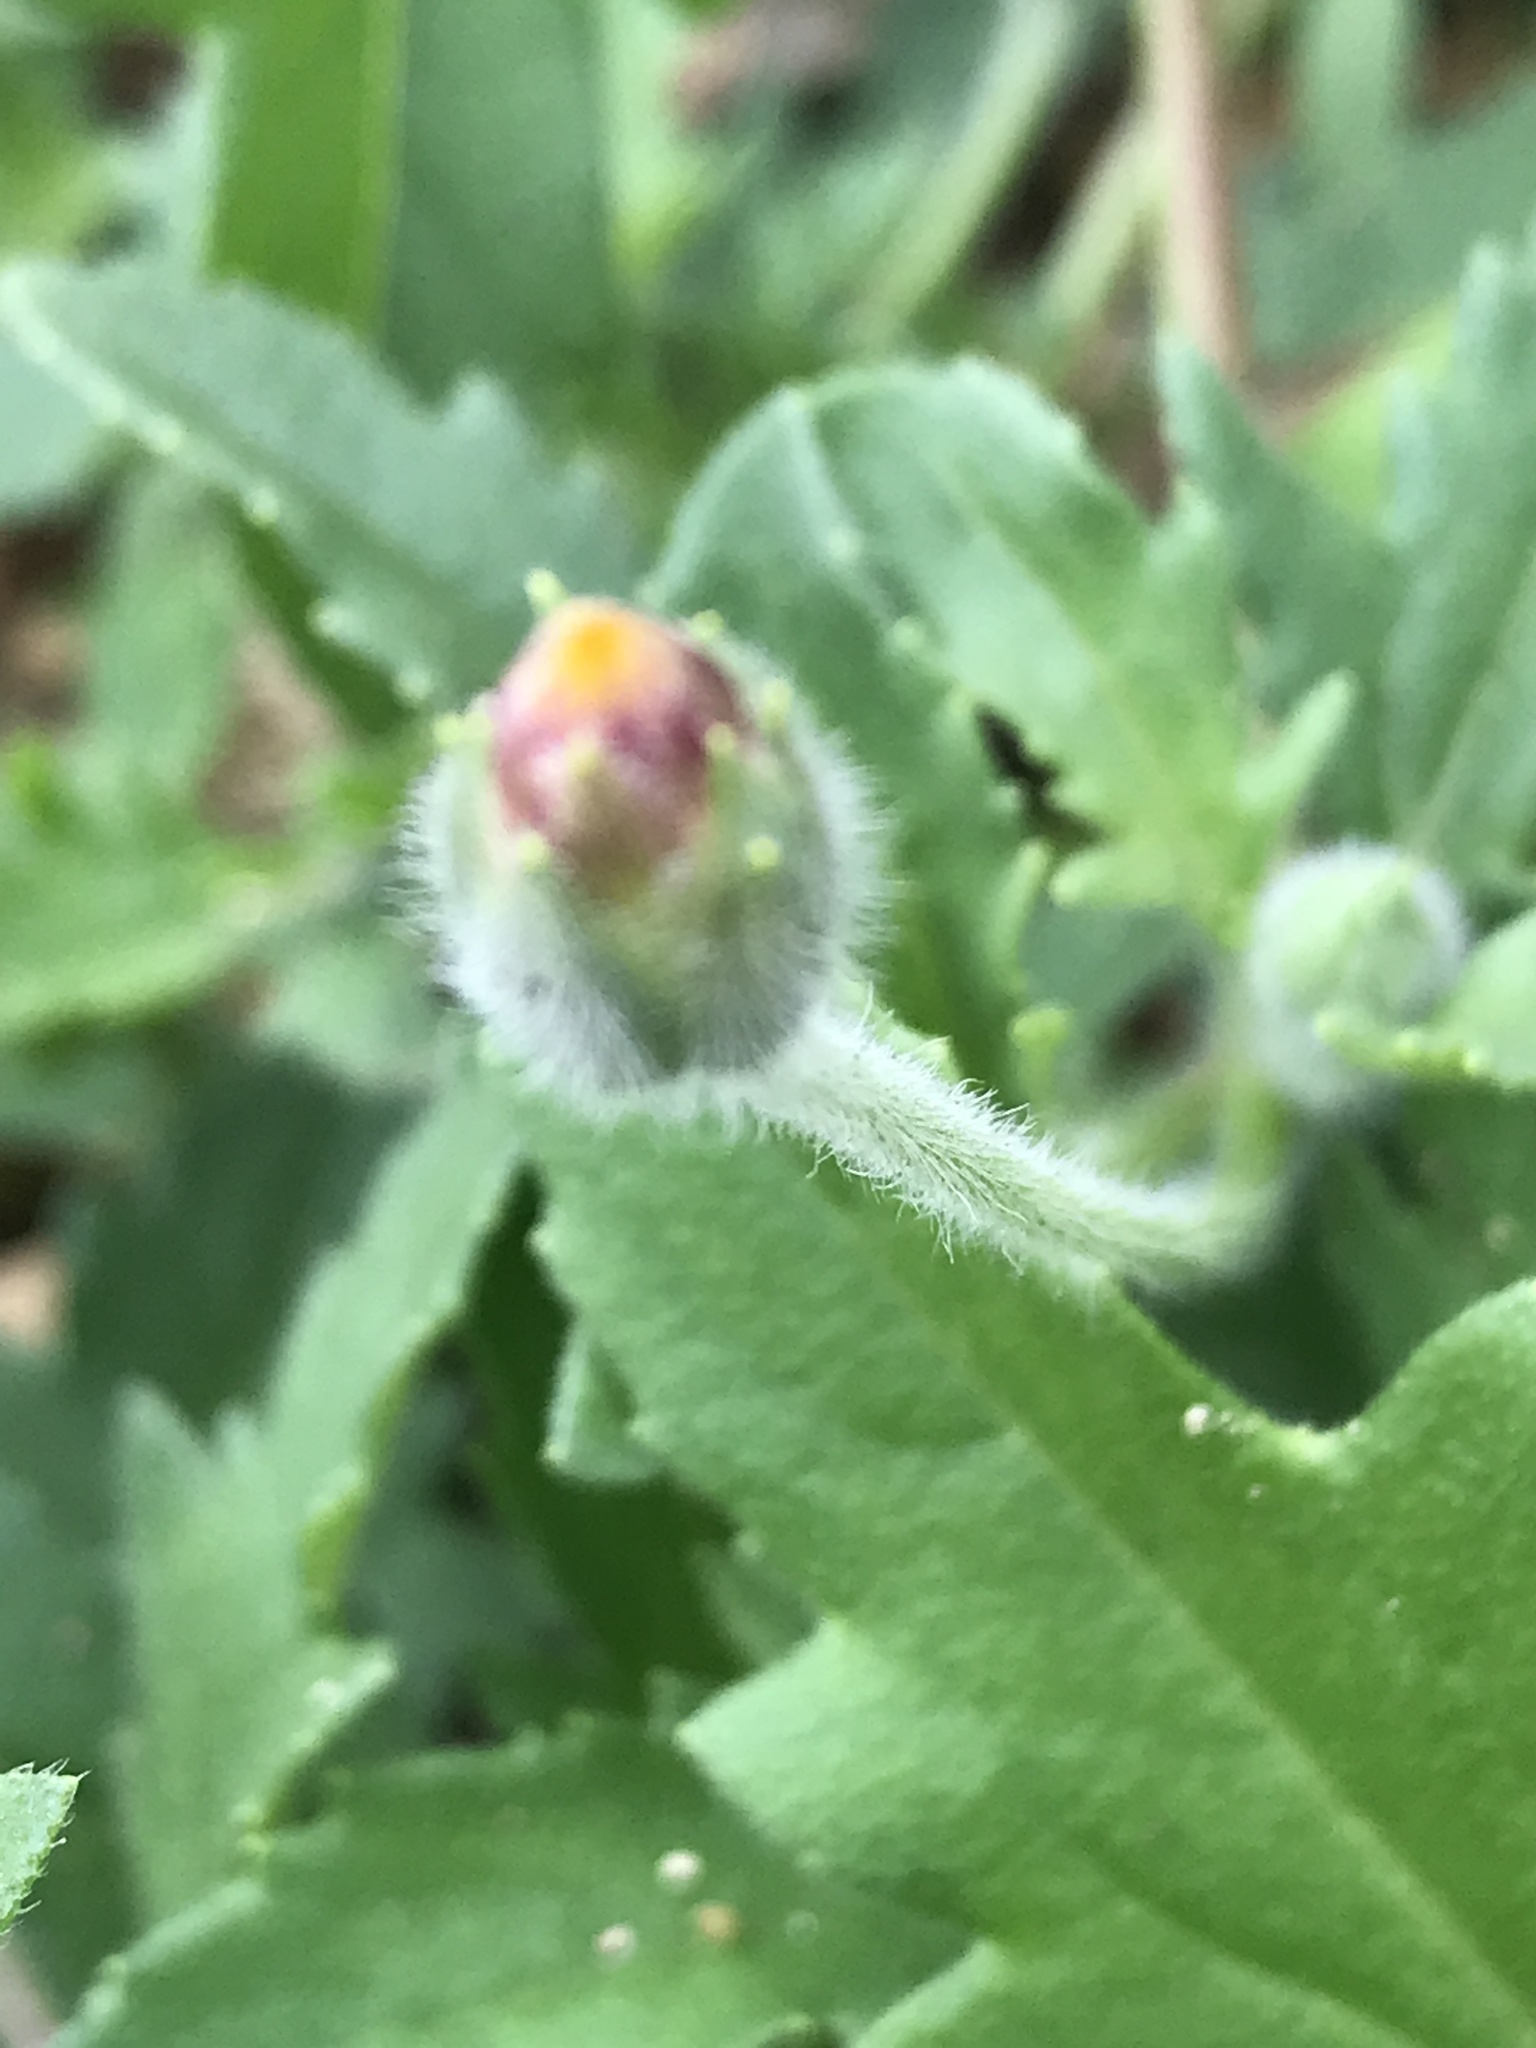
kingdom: Plantae
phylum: Tracheophyta
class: Magnoliopsida
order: Asterales
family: Asteraceae
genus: Tridax
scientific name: Tridax procumbens
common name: Coatbuttons
